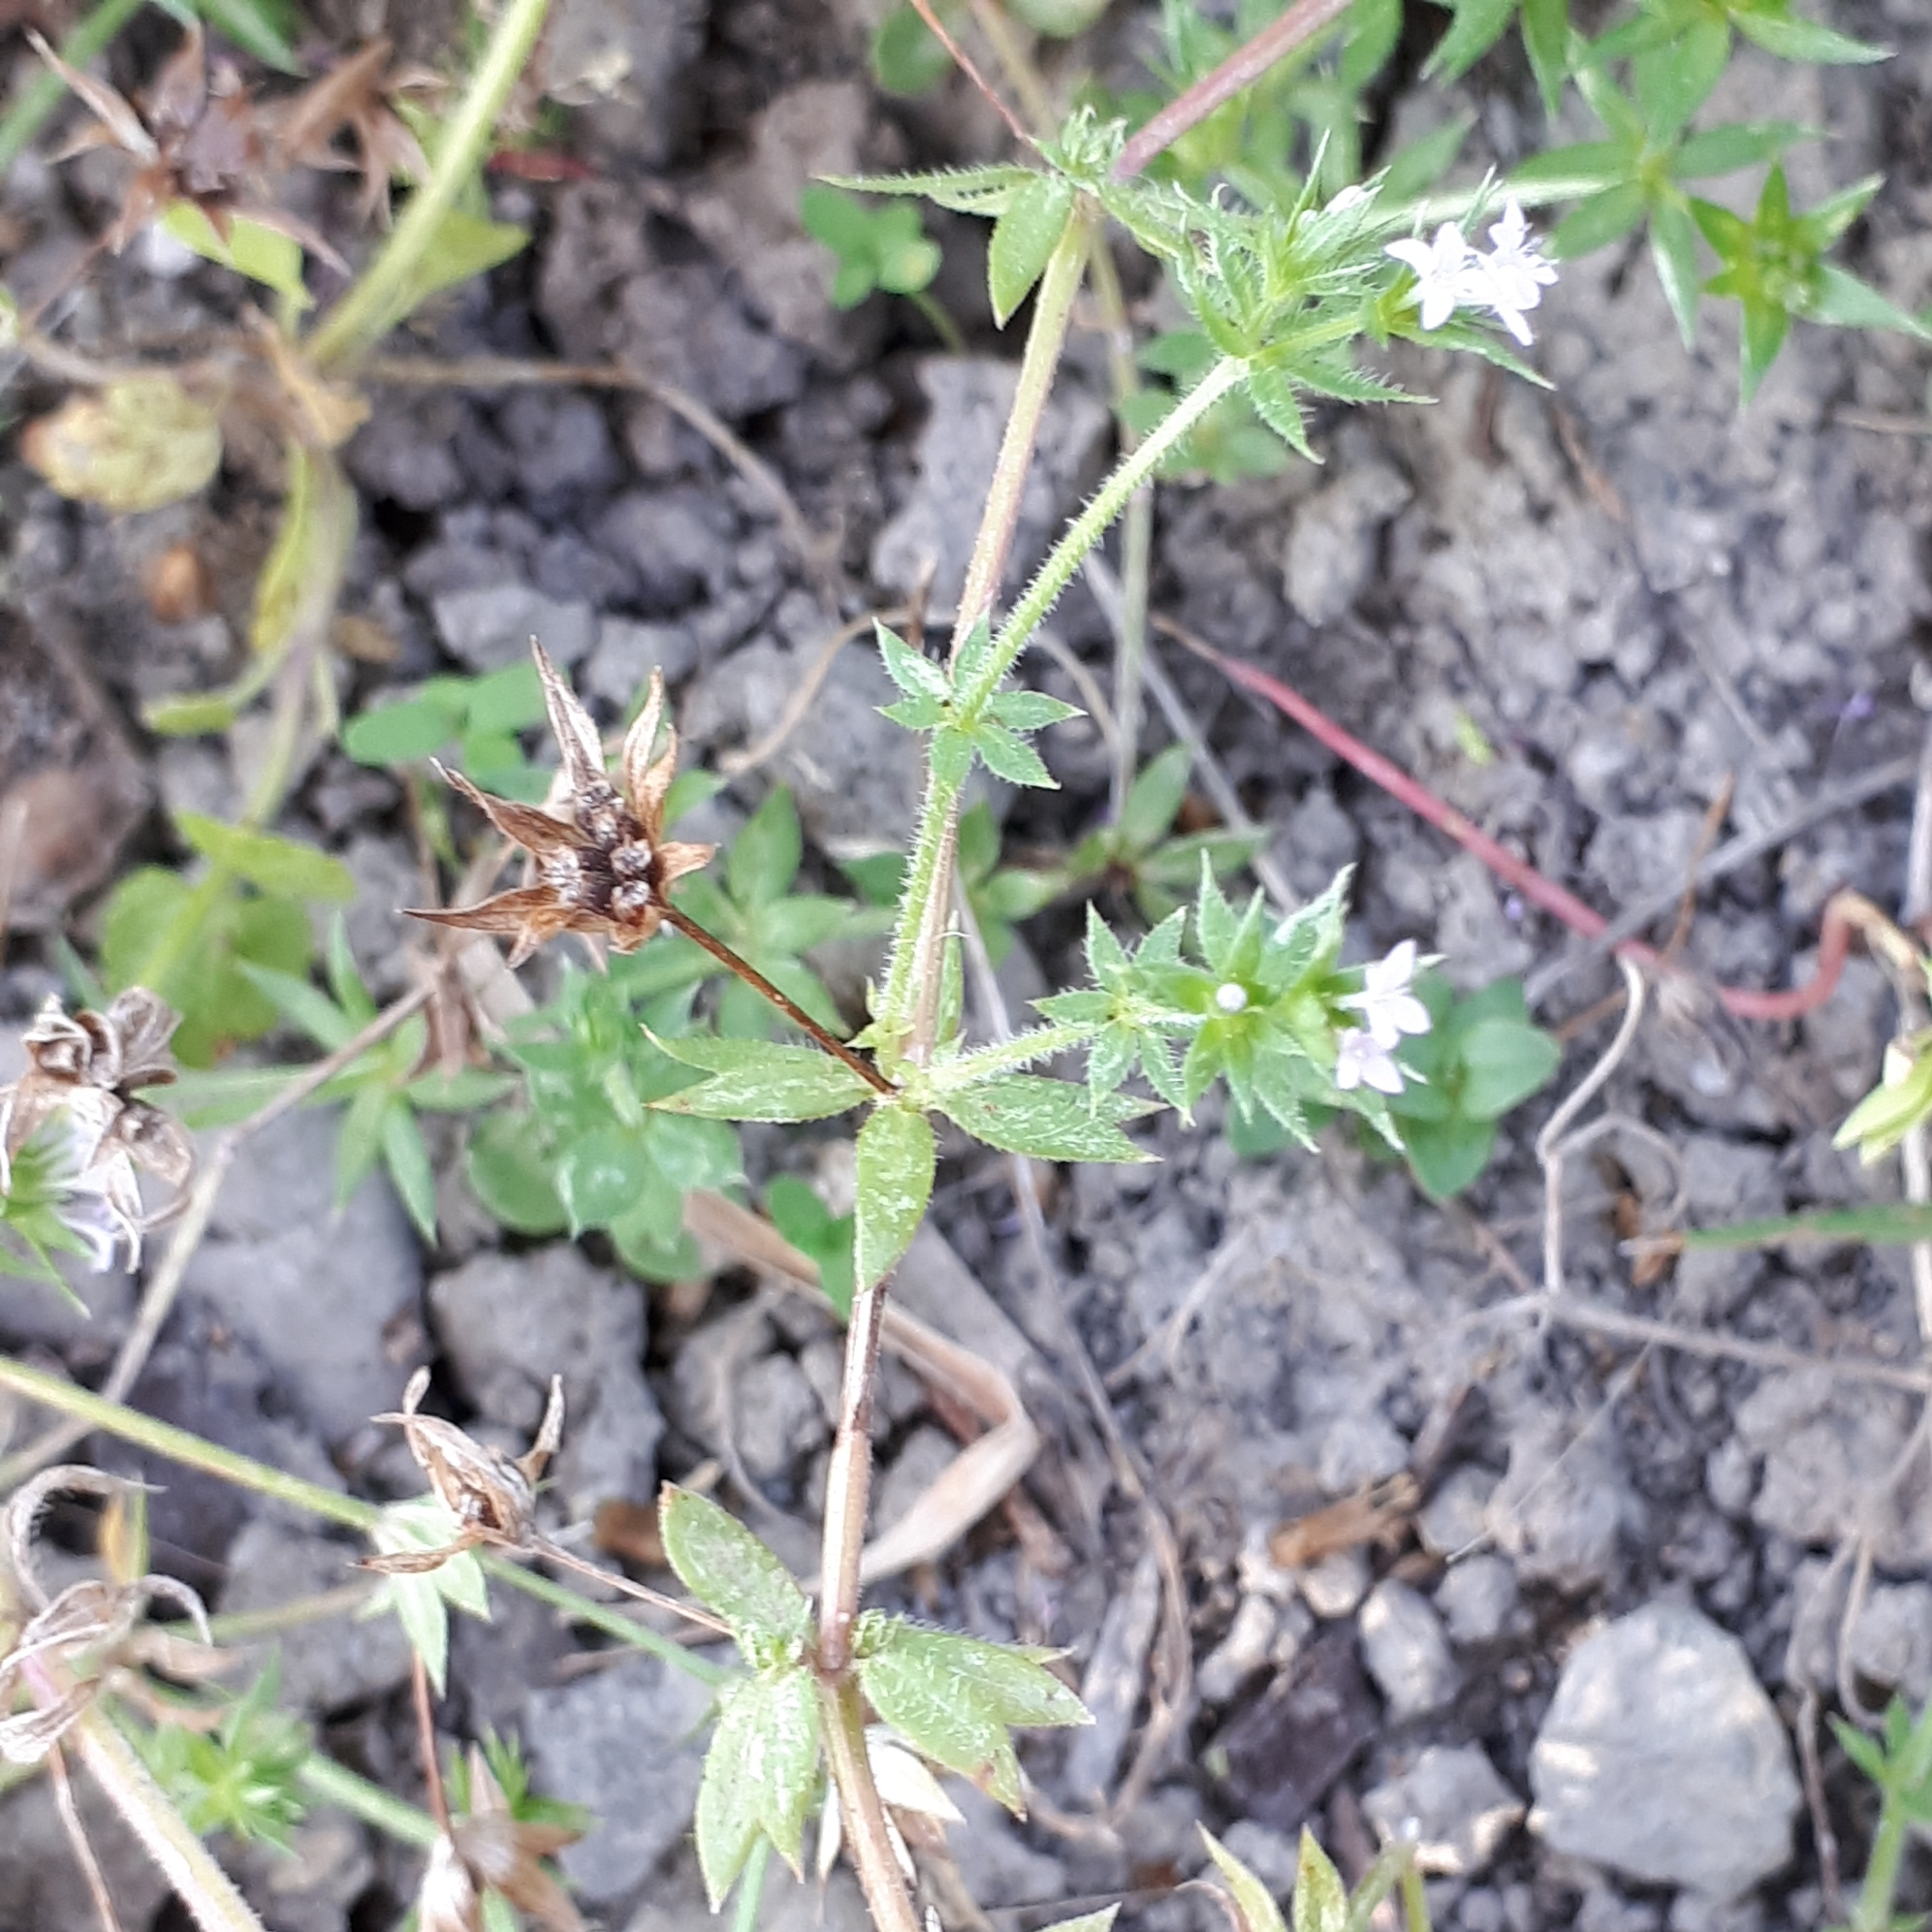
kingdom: Plantae
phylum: Tracheophyta
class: Magnoliopsida
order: Gentianales
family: Rubiaceae
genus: Sherardia
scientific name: Sherardia arvensis
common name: Field madder
